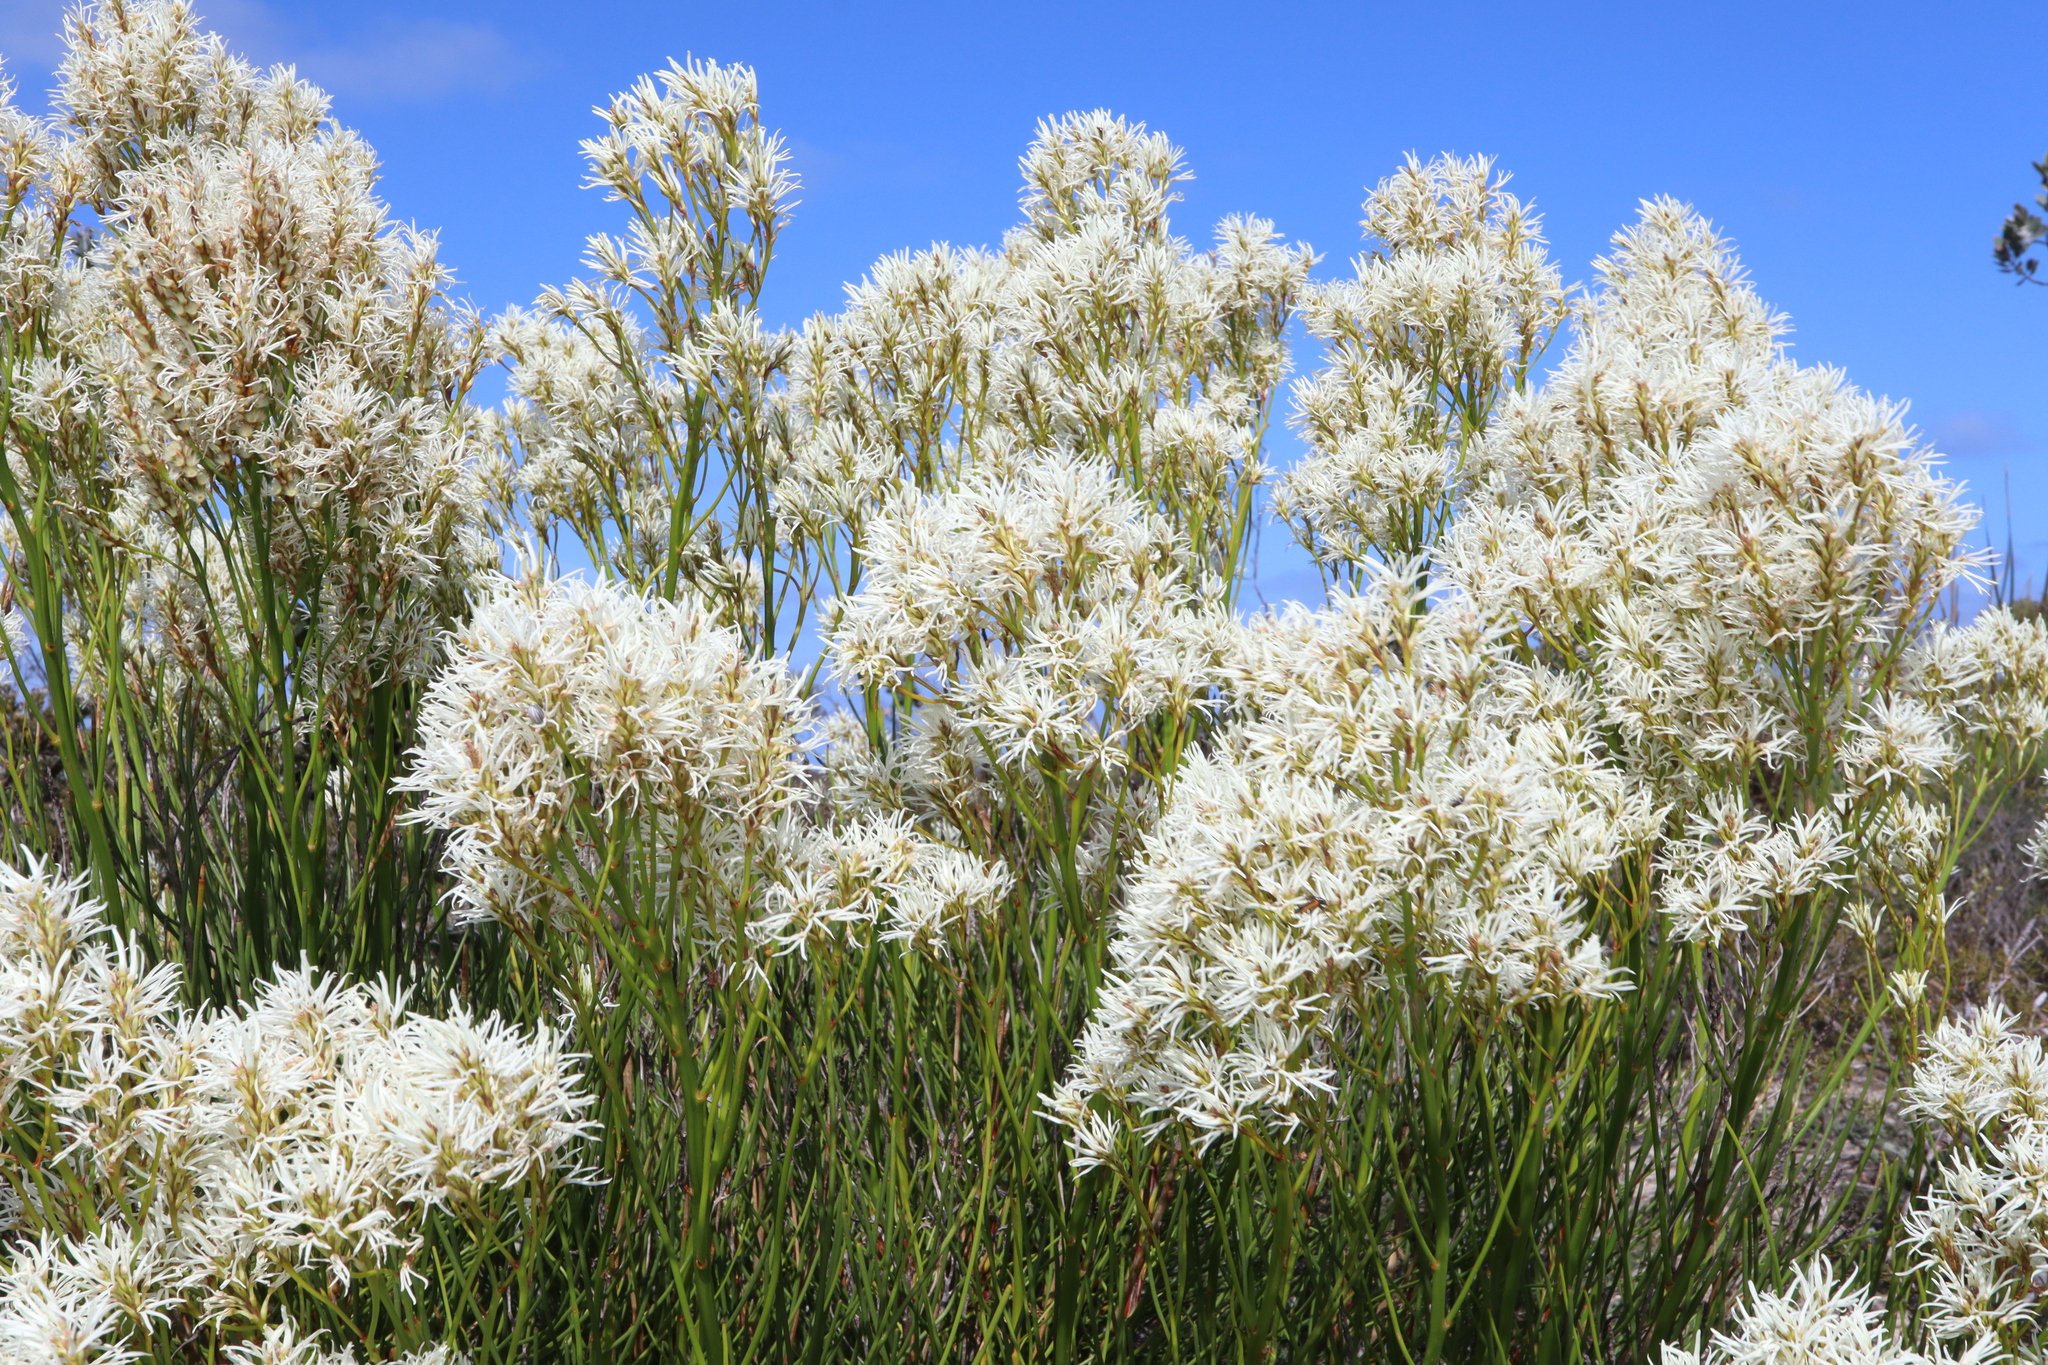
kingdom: Plantae
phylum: Tracheophyta
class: Magnoliopsida
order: Proteales
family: Proteaceae
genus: Conospermum
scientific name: Conospermum teretifolium
